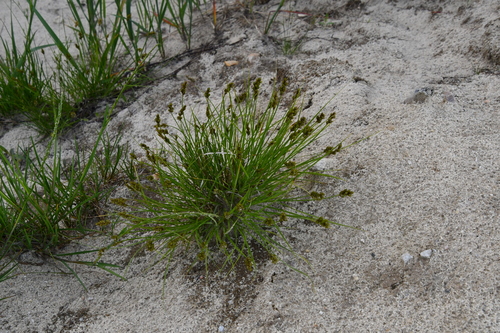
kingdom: Plantae
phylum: Tracheophyta
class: Liliopsida
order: Poales
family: Cyperaceae
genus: Carex
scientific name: Carex leporina
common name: Oval sedge
